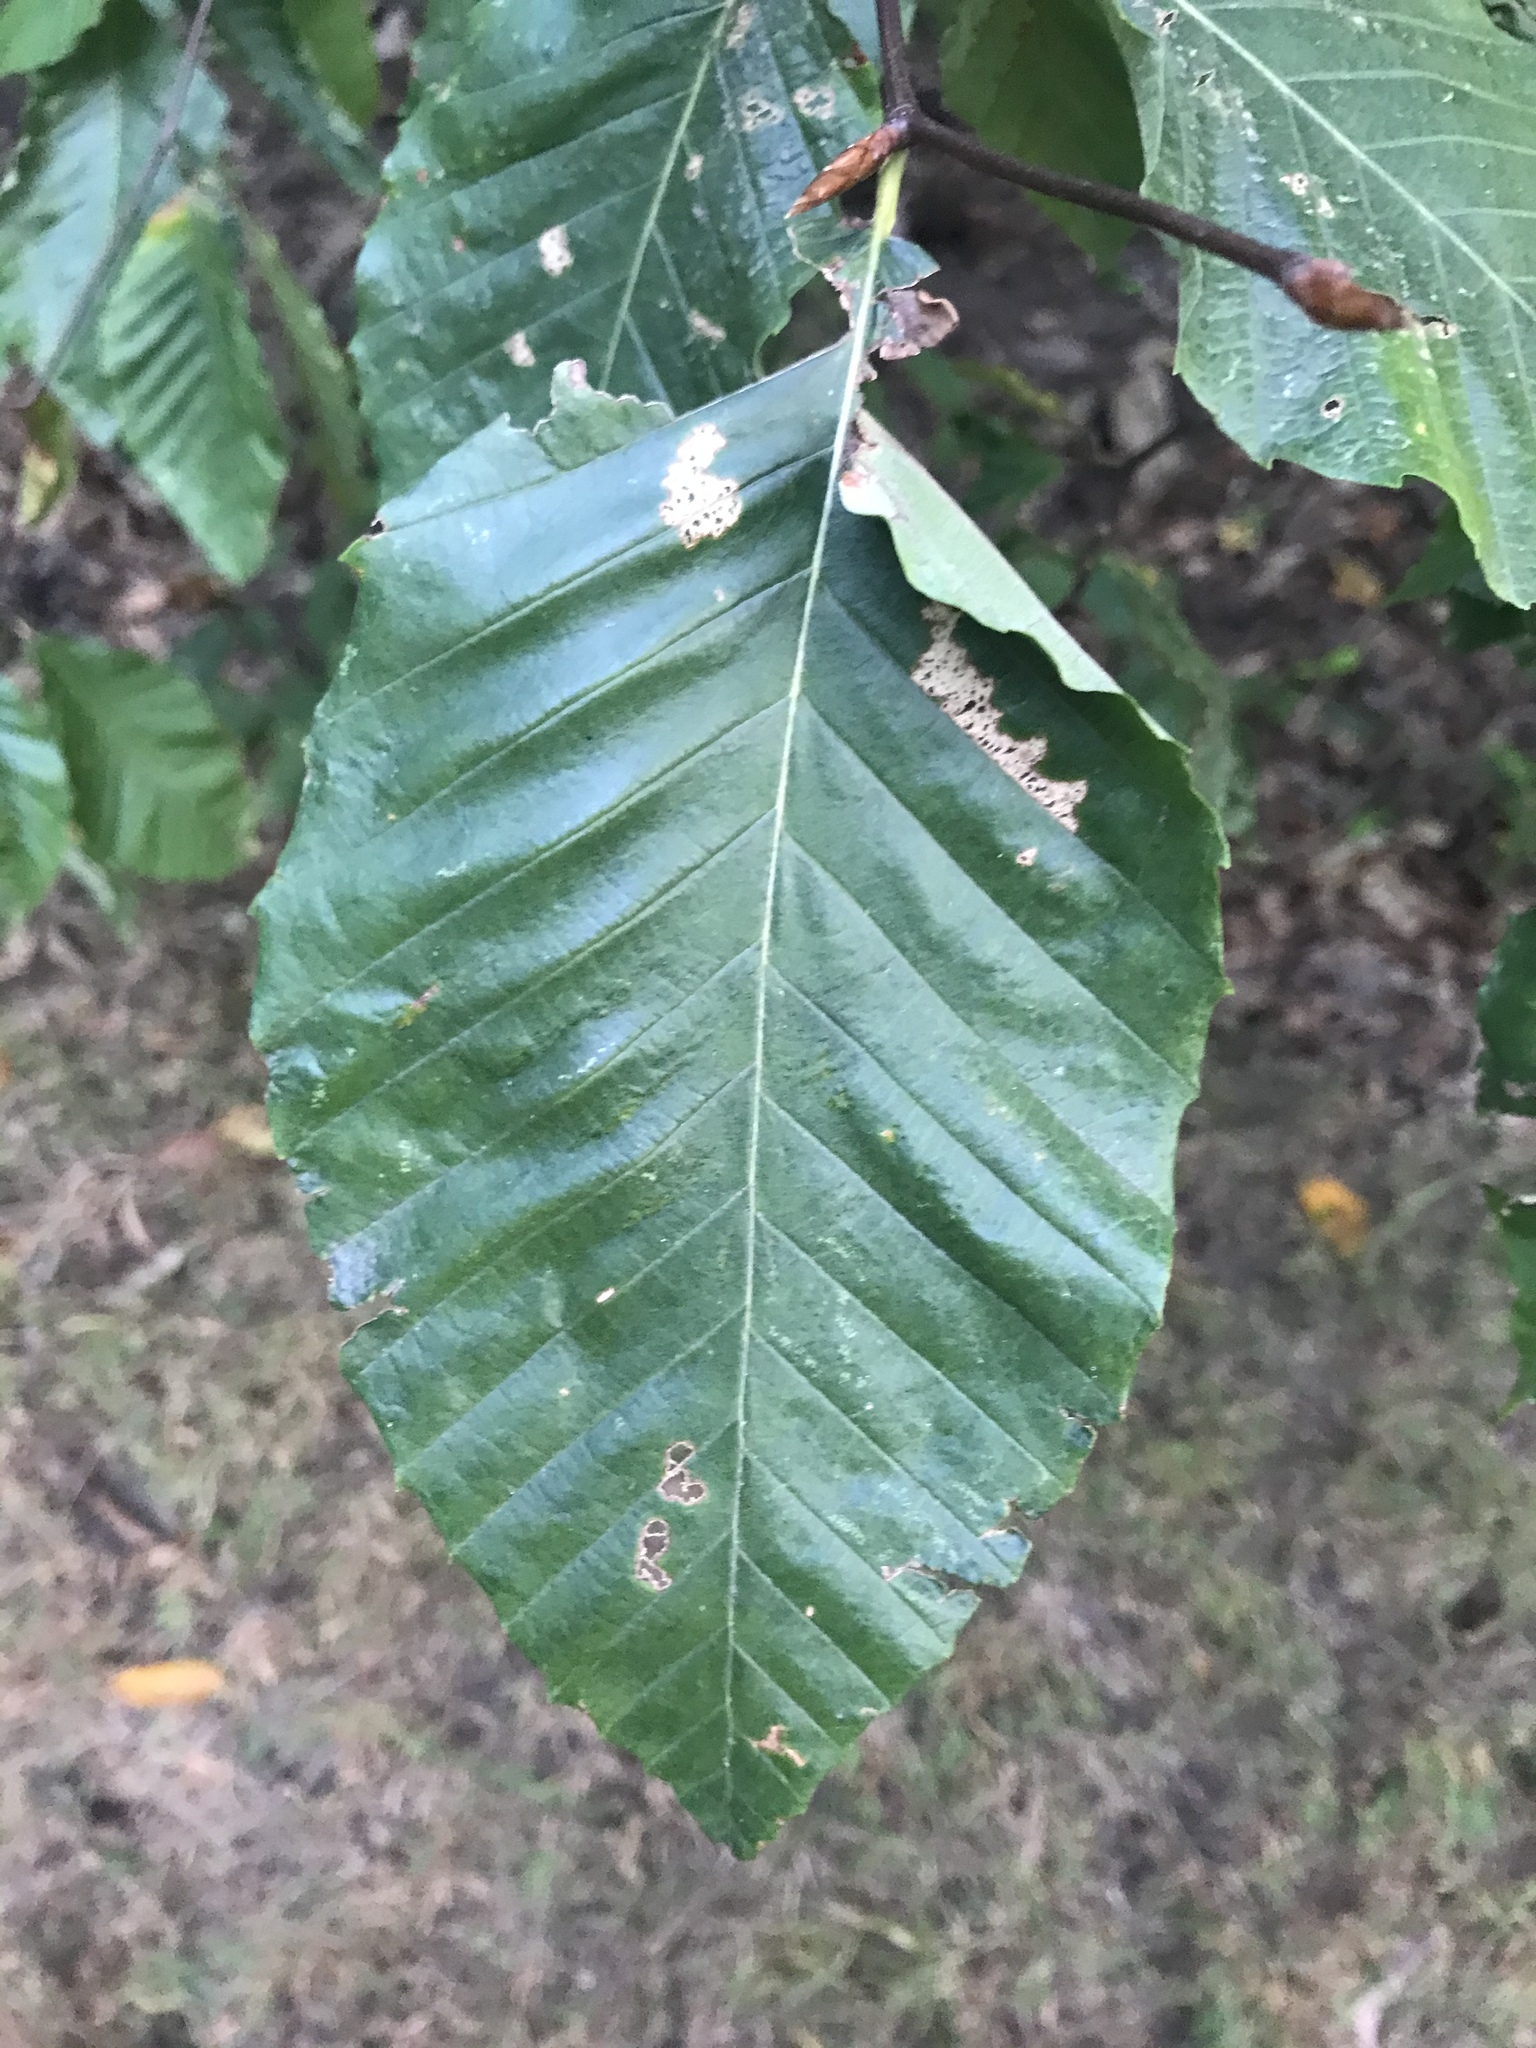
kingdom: Plantae
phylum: Tracheophyta
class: Magnoliopsida
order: Fagales
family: Fagaceae
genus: Fagus
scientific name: Fagus grandifolia
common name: American beech
